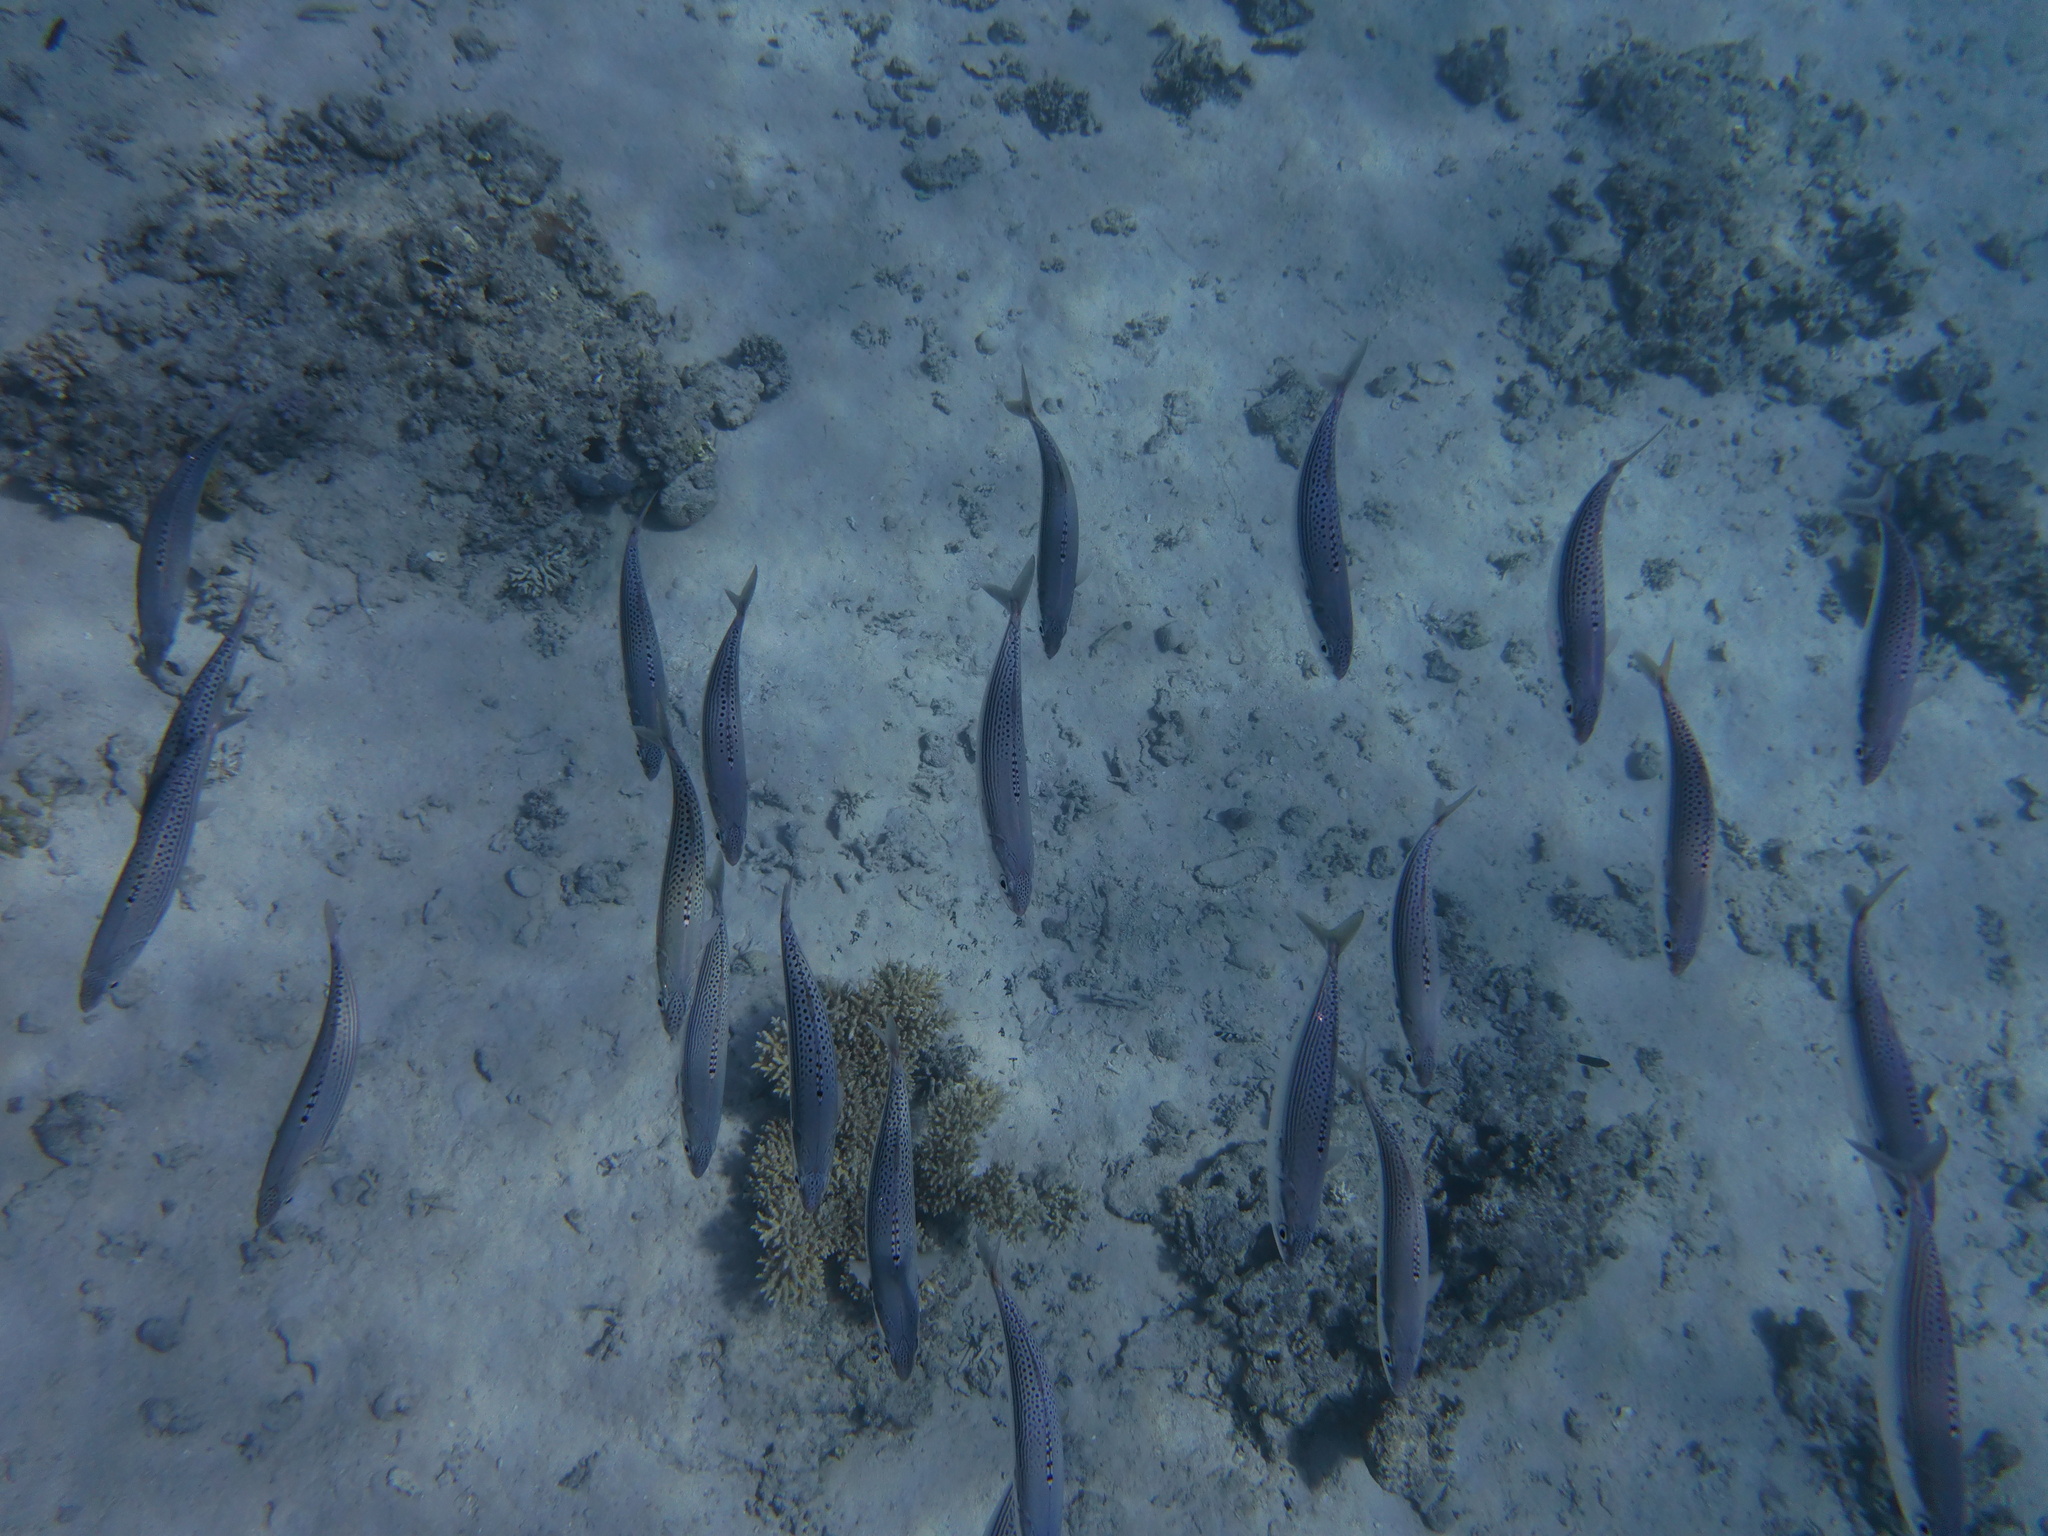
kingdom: Animalia
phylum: Chordata
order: Perciformes
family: Scombridae
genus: Rastrelliger
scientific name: Rastrelliger kanagurta
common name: Indian mackerel
